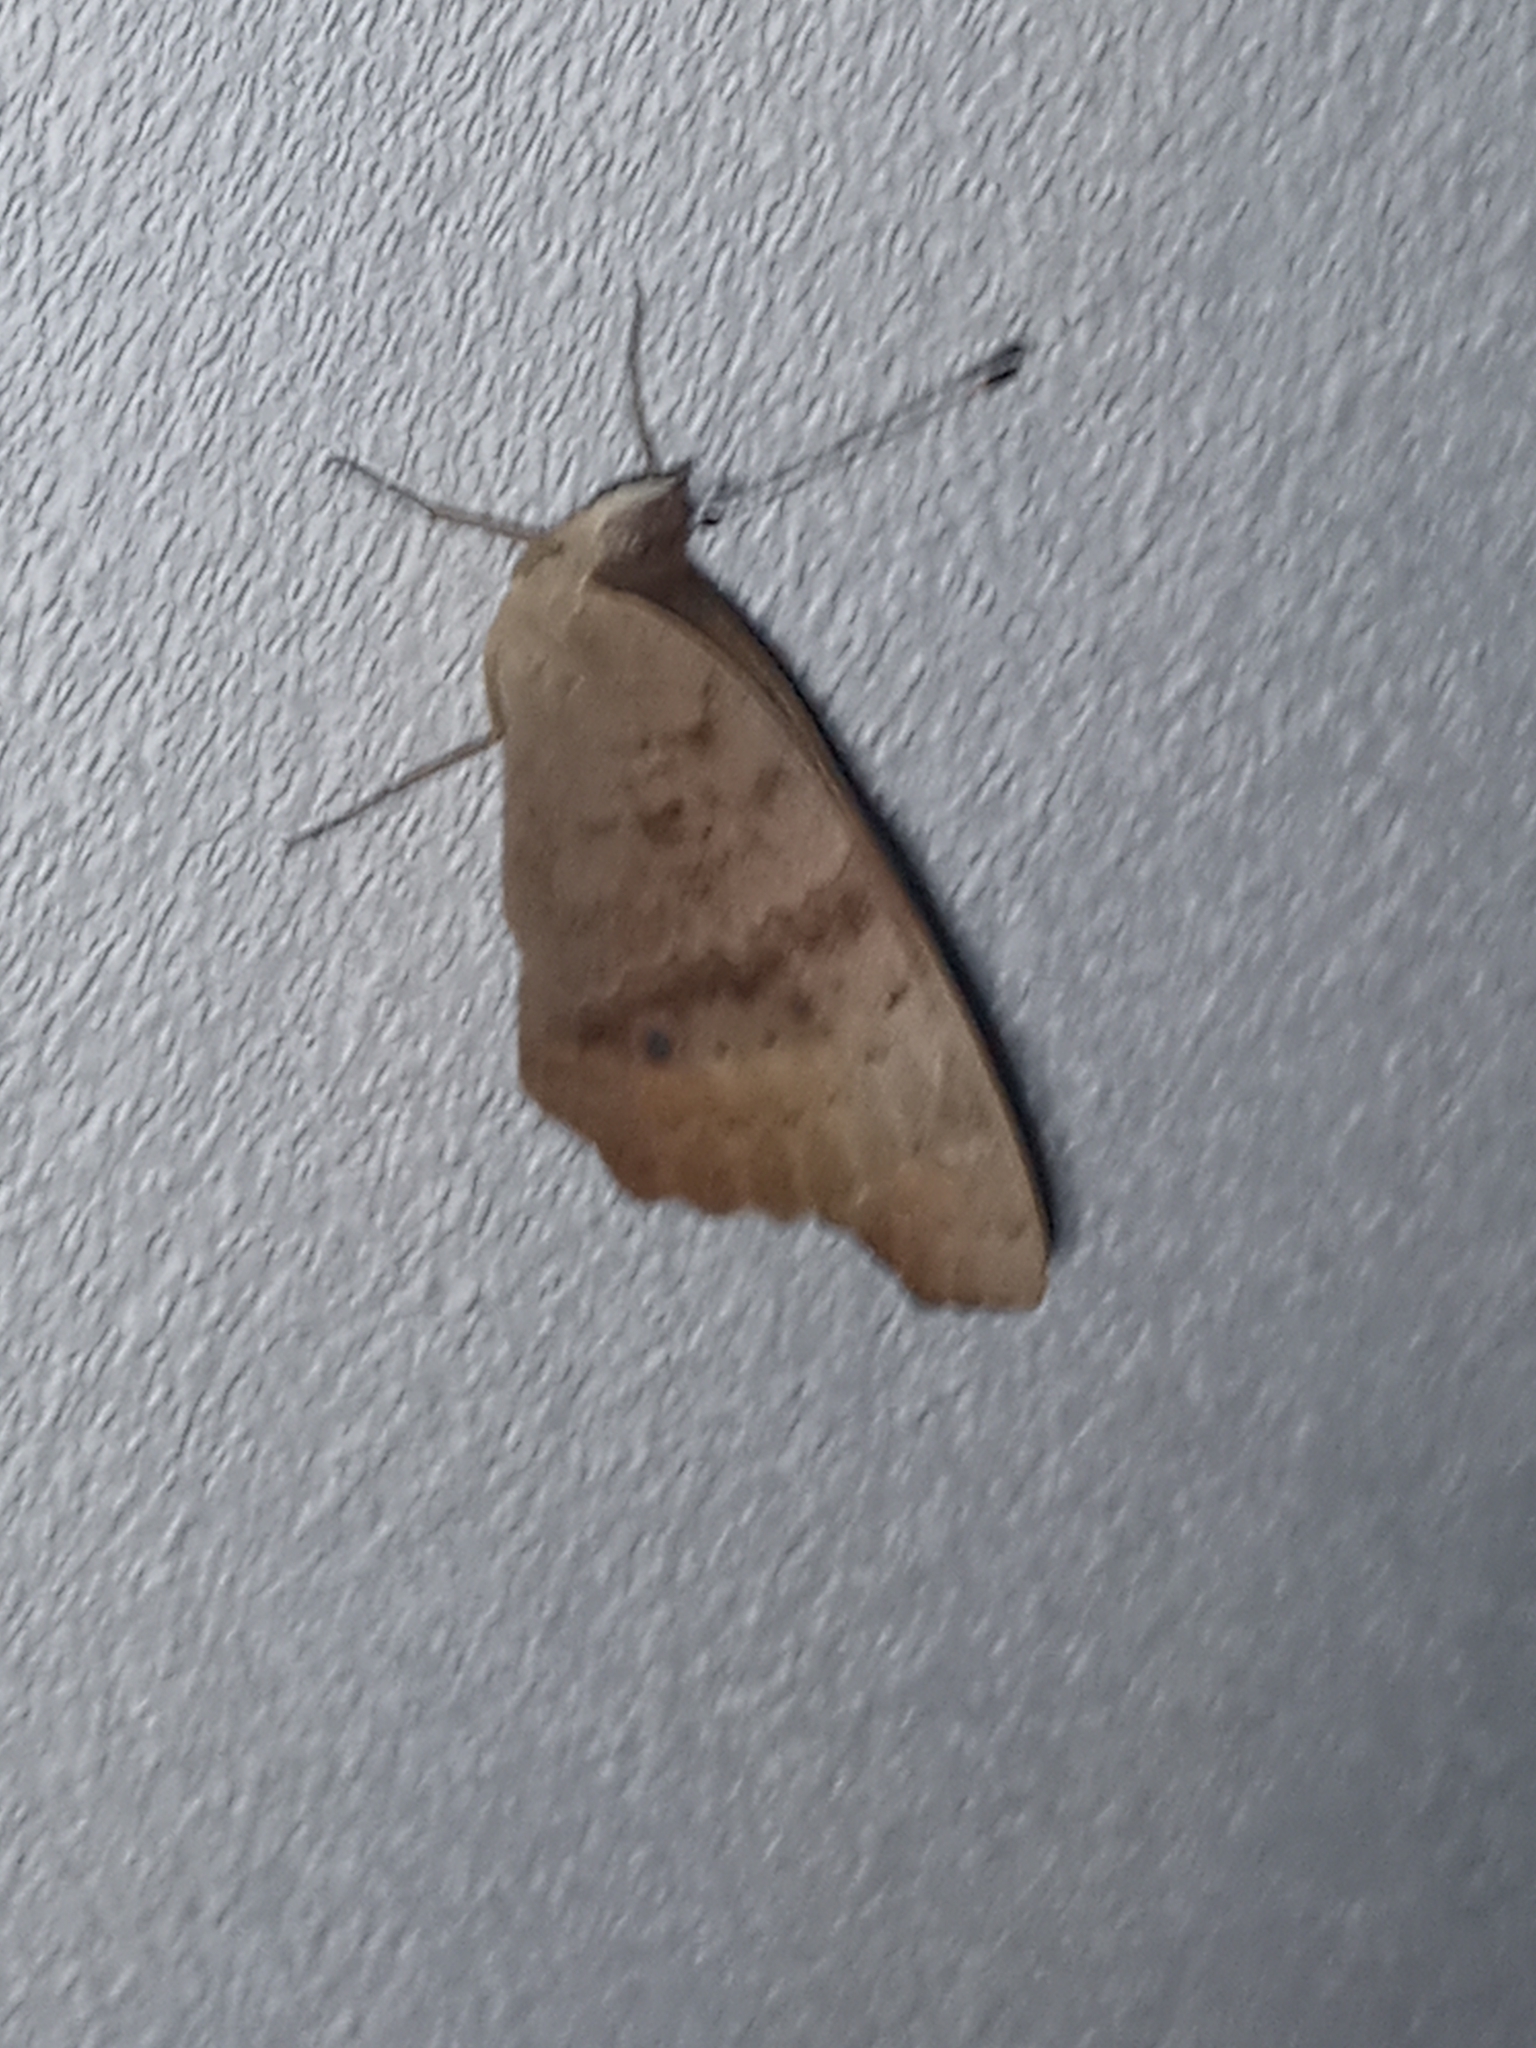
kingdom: Animalia
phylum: Arthropoda
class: Insecta
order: Lepidoptera
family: Nymphalidae
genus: Junonia
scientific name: Junonia lavinia
